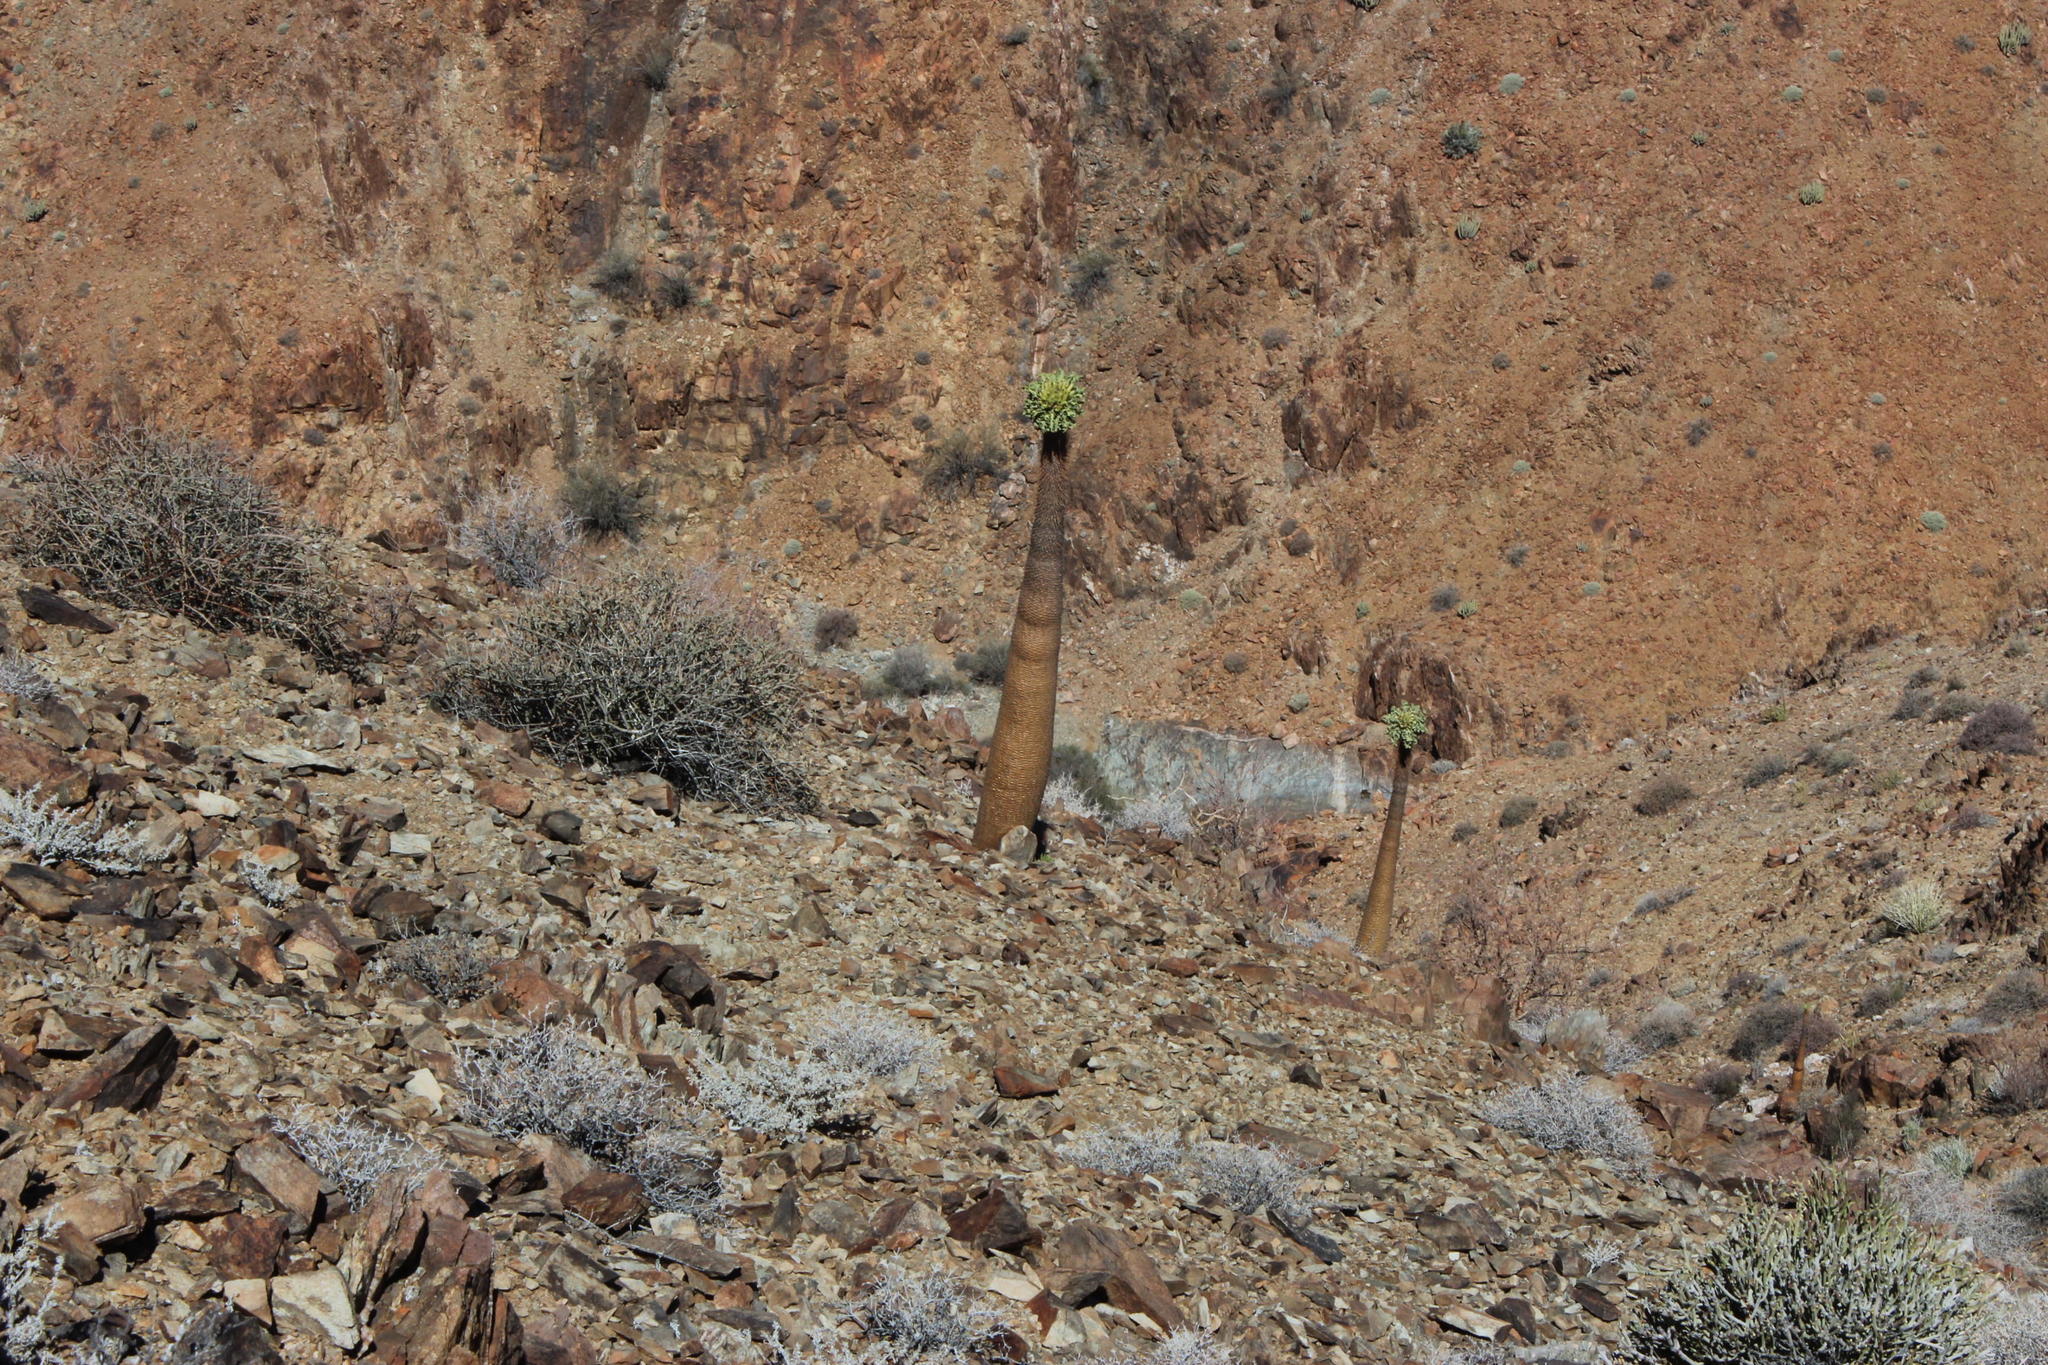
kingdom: Plantae
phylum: Tracheophyta
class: Magnoliopsida
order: Gentianales
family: Apocynaceae
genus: Pachypodium
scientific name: Pachypodium namaquanum
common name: Elephant's trunk
